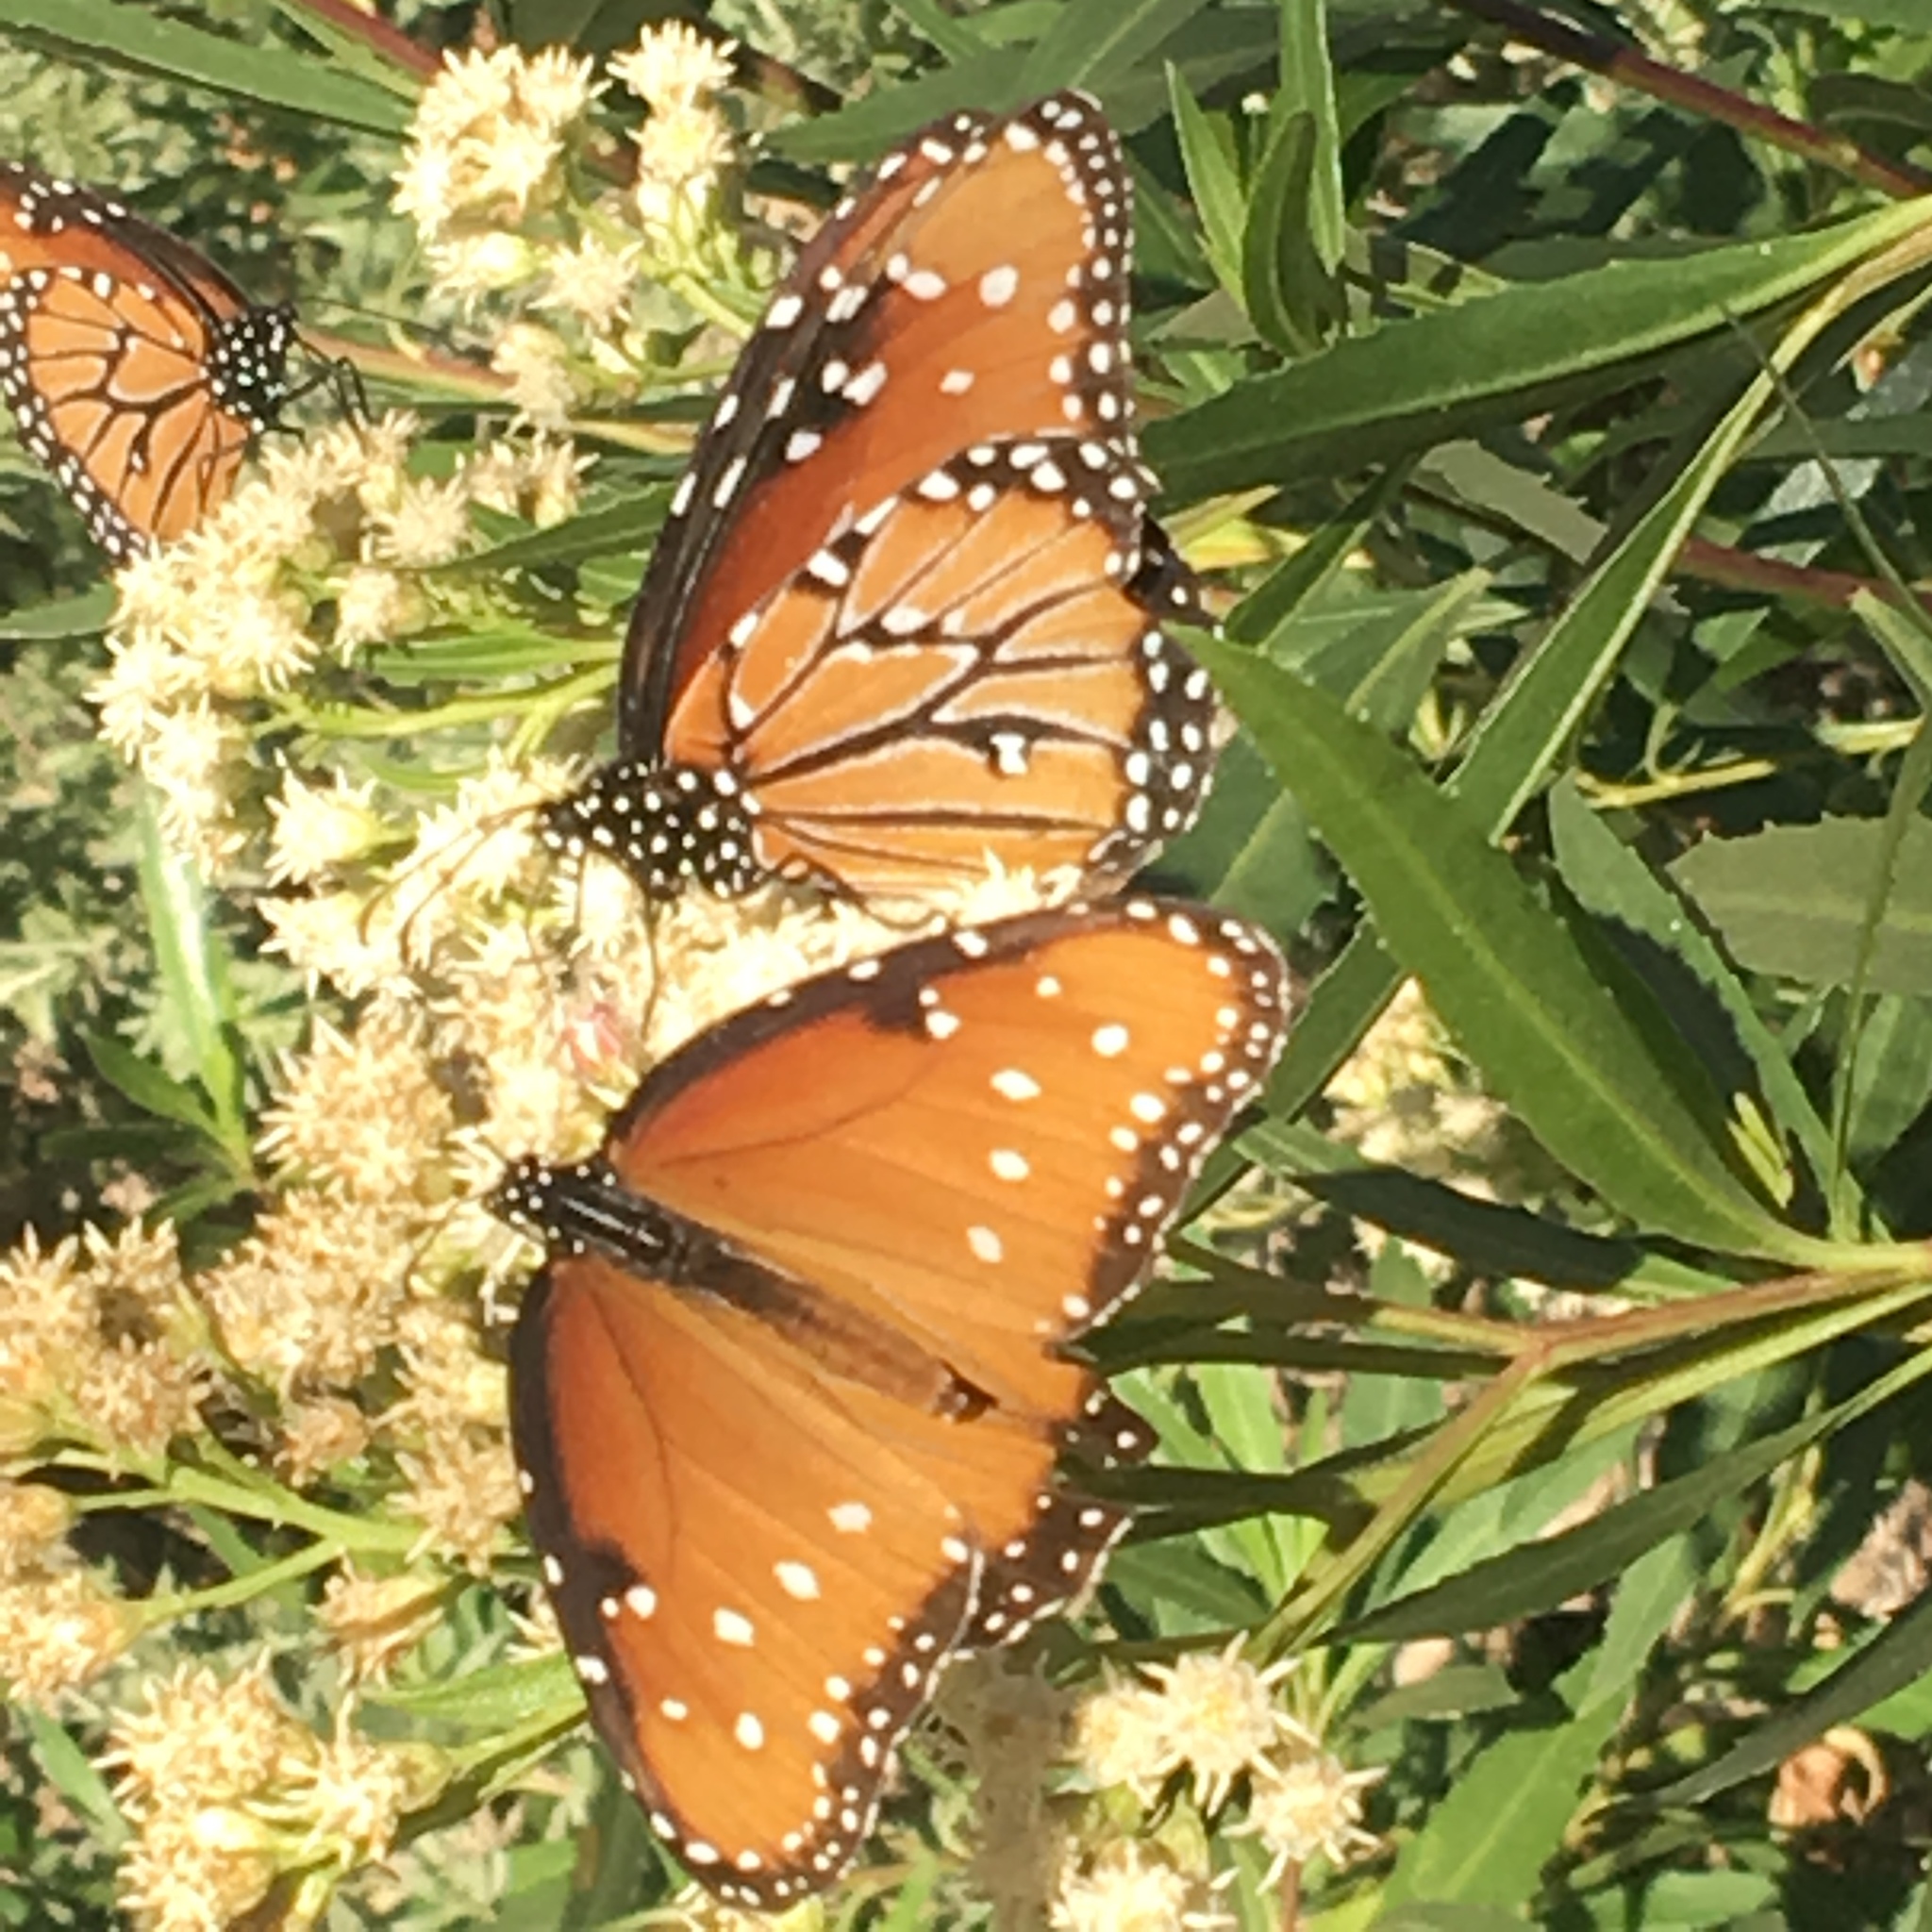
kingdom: Animalia
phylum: Arthropoda
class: Insecta
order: Lepidoptera
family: Nymphalidae
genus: Danaus
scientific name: Danaus gilippus
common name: Queen
